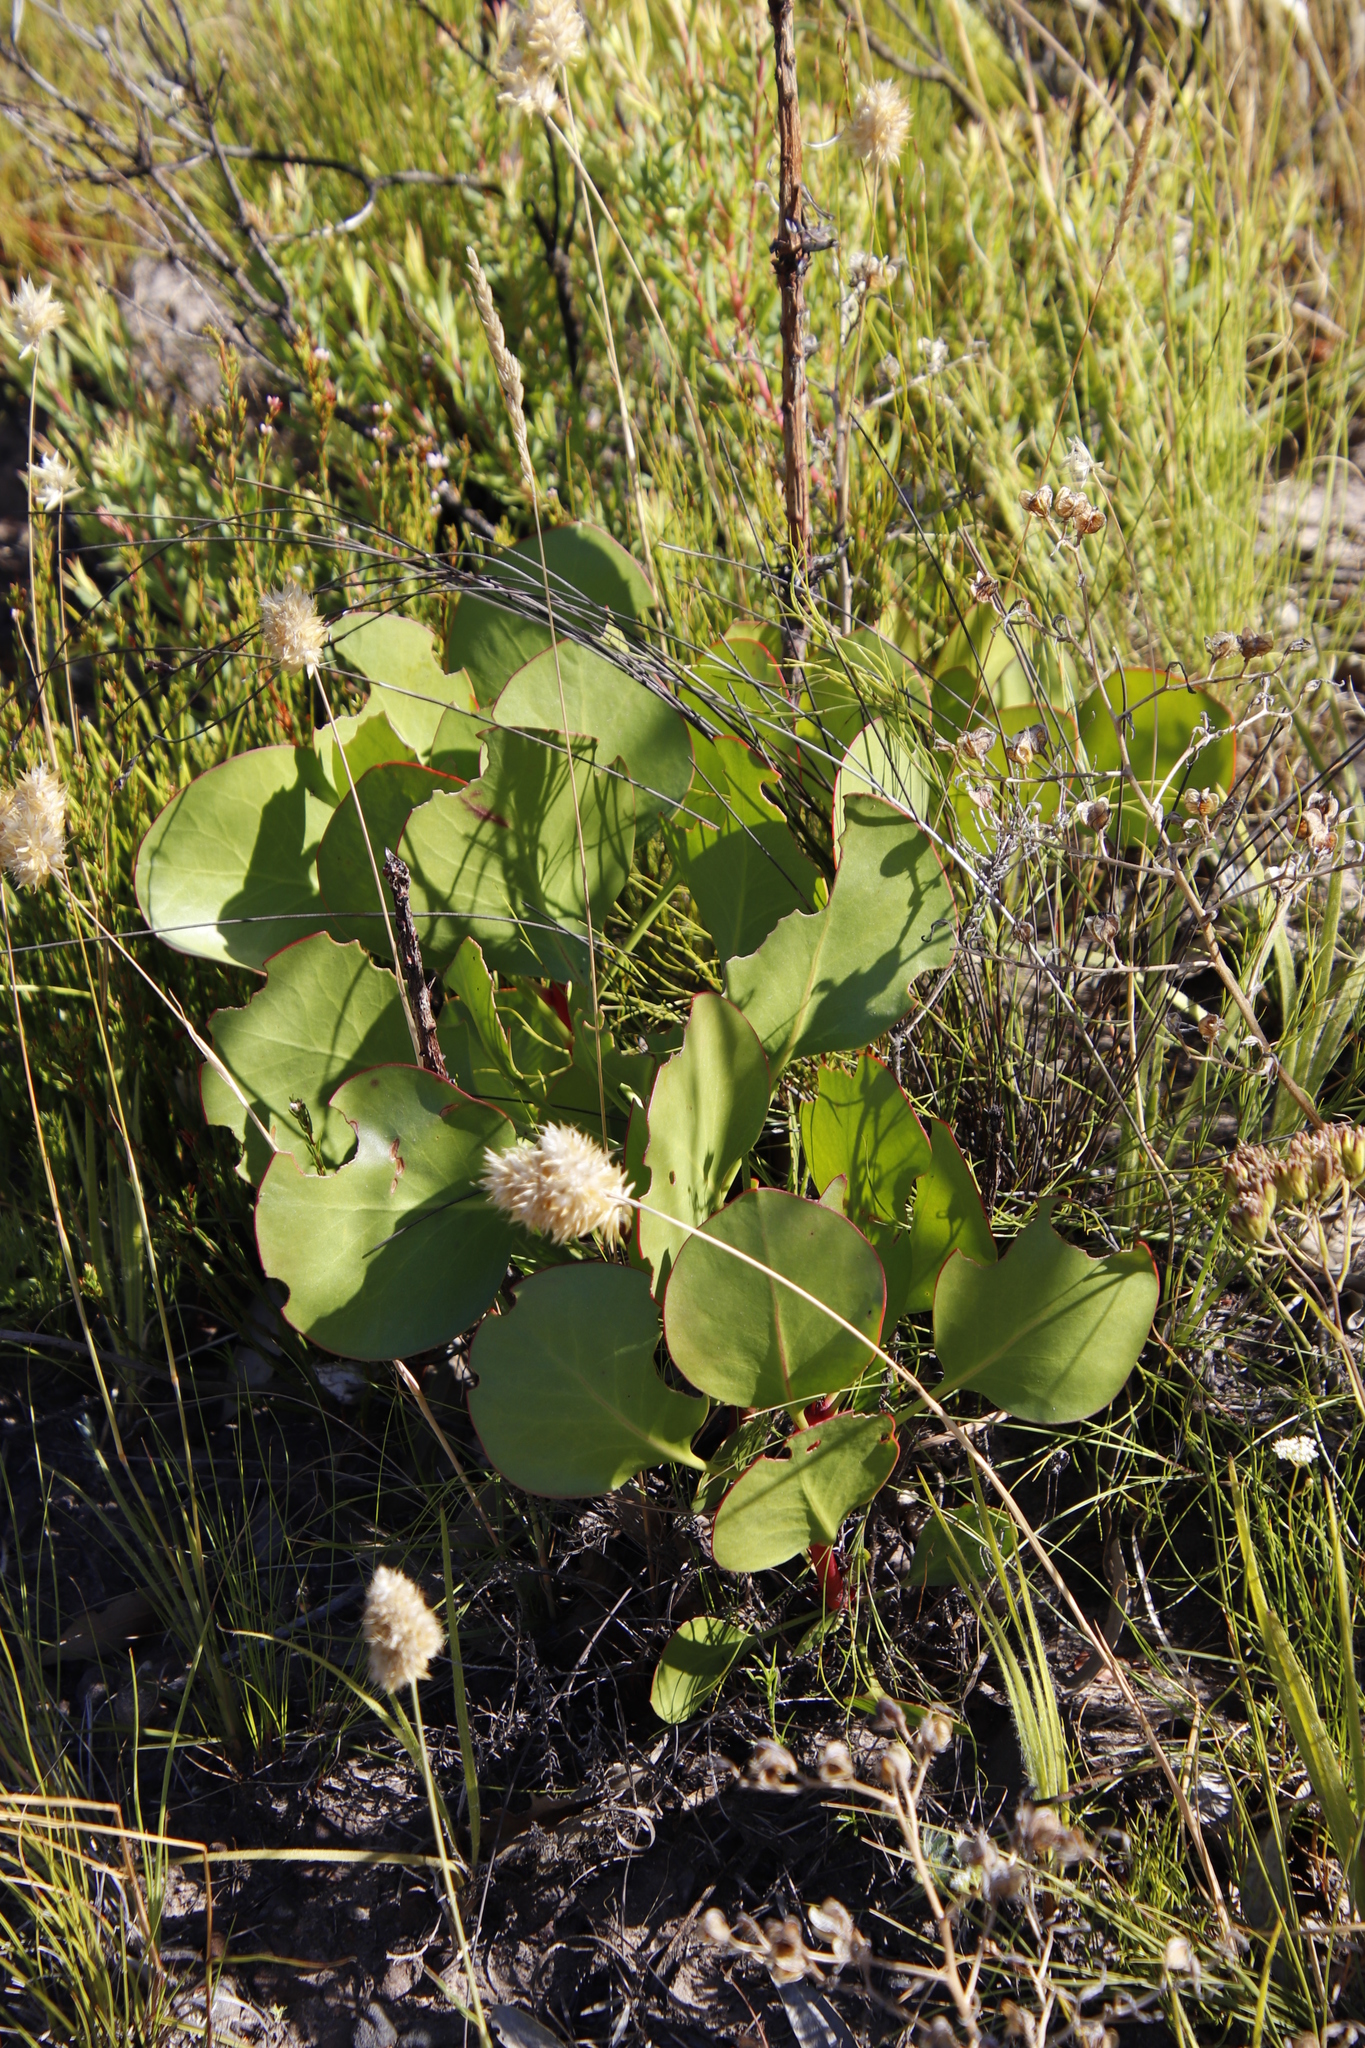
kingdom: Plantae
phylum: Tracheophyta
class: Magnoliopsida
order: Proteales
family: Proteaceae
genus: Protea
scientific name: Protea cynaroides
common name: King protea
